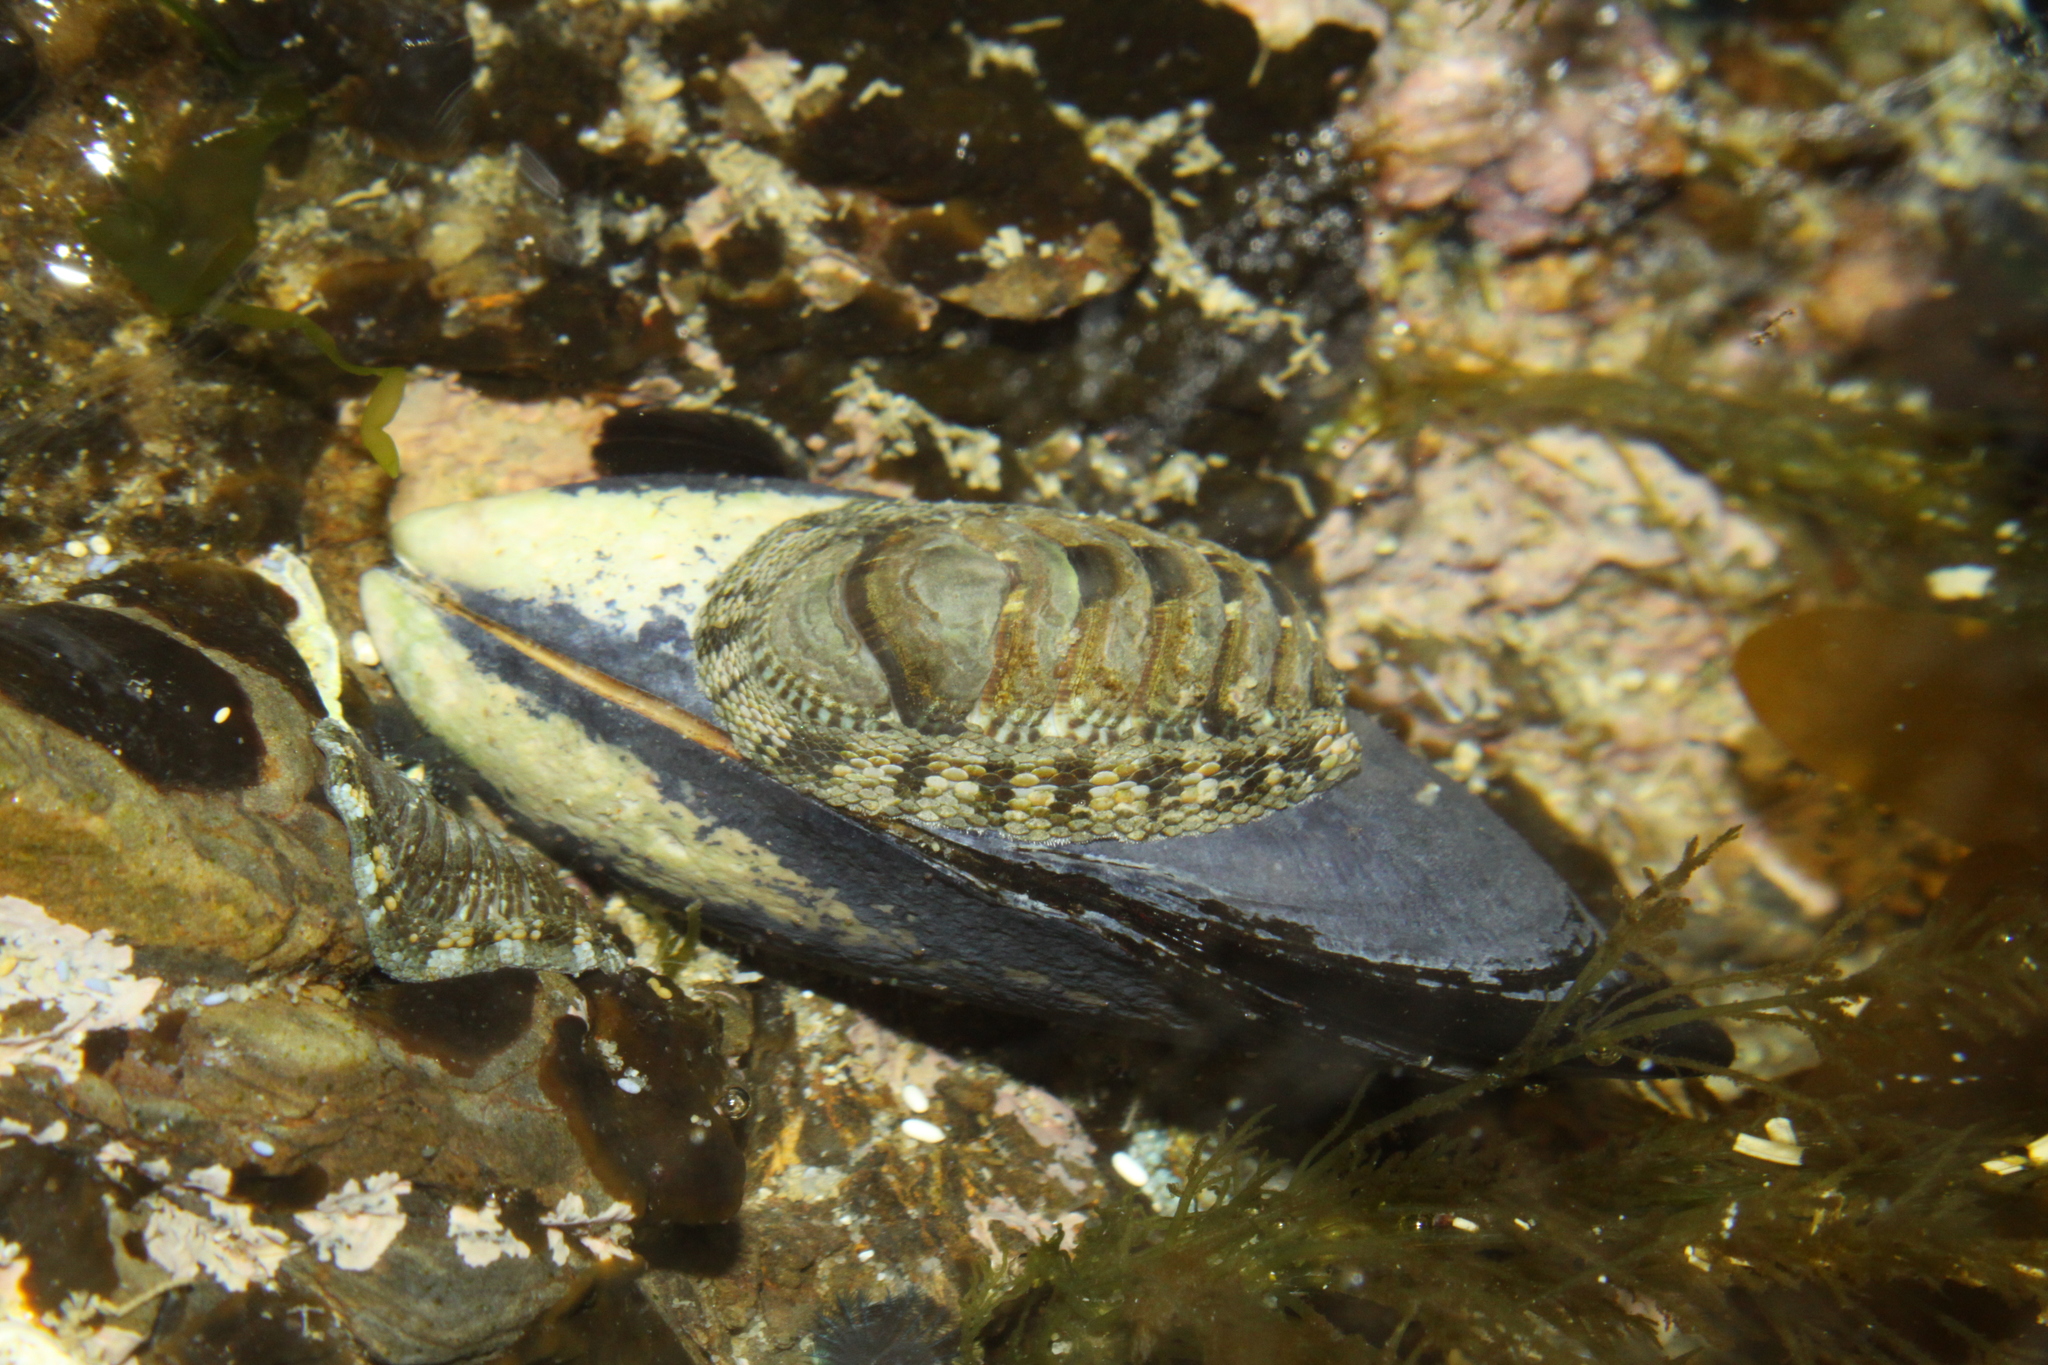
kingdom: Animalia
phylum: Mollusca
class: Polyplacophora
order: Chitonida
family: Chitonidae
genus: Sypharochiton
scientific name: Sypharochiton pelliserpentis
